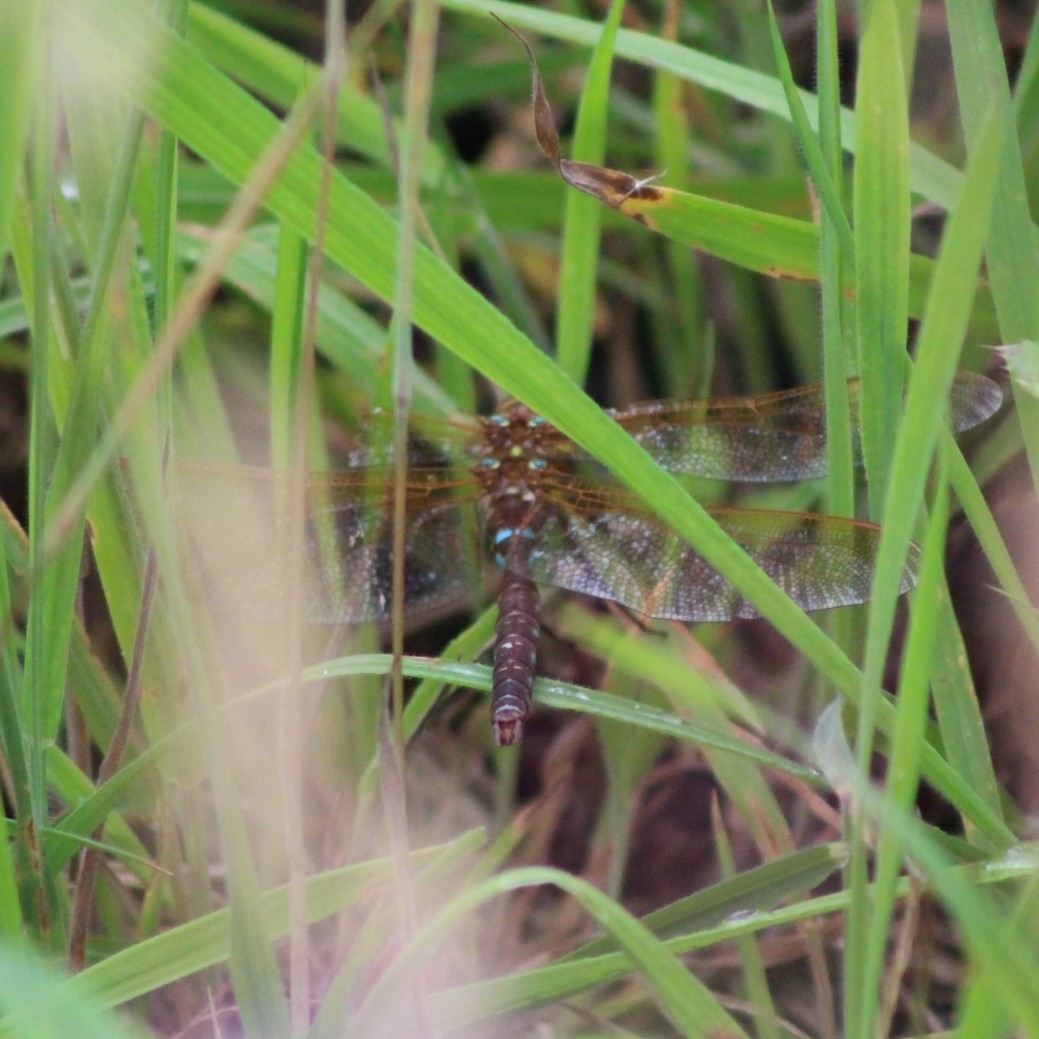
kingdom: Animalia
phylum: Arthropoda
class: Insecta
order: Odonata
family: Aeshnidae
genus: Aeshna
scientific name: Aeshna grandis
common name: Brown hawker
